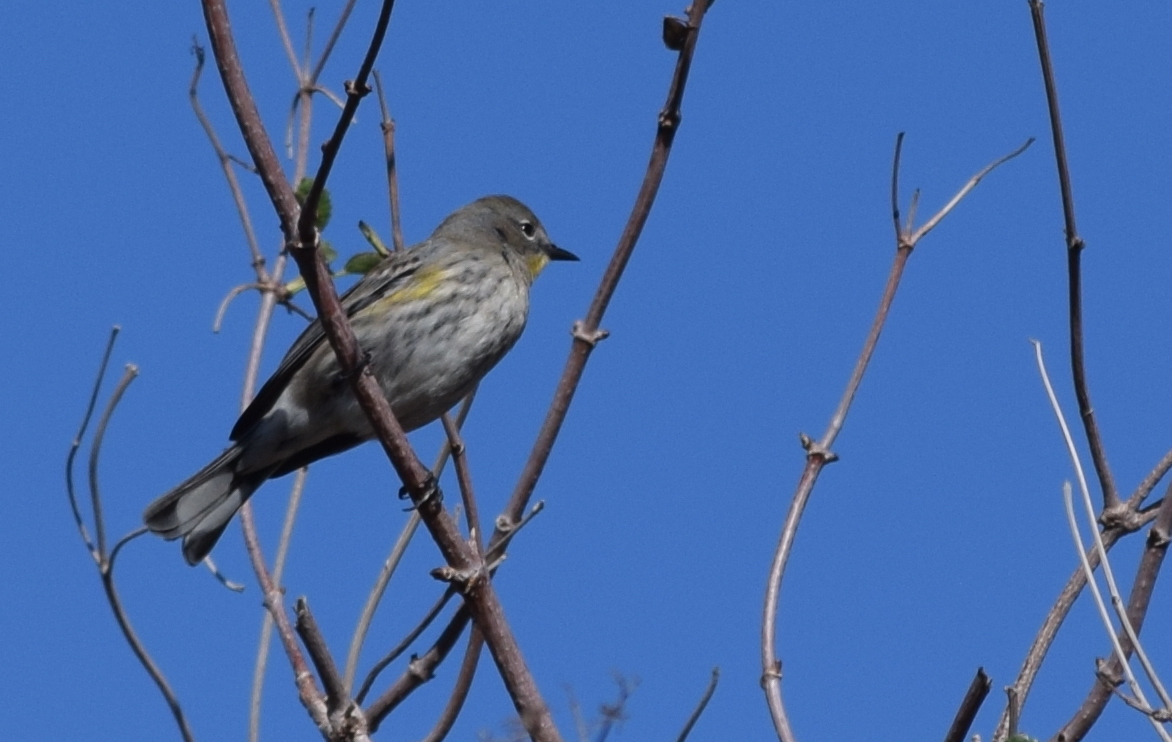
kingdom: Animalia
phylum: Chordata
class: Aves
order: Passeriformes
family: Parulidae
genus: Setophaga
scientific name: Setophaga auduboni
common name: Audubon's warbler
